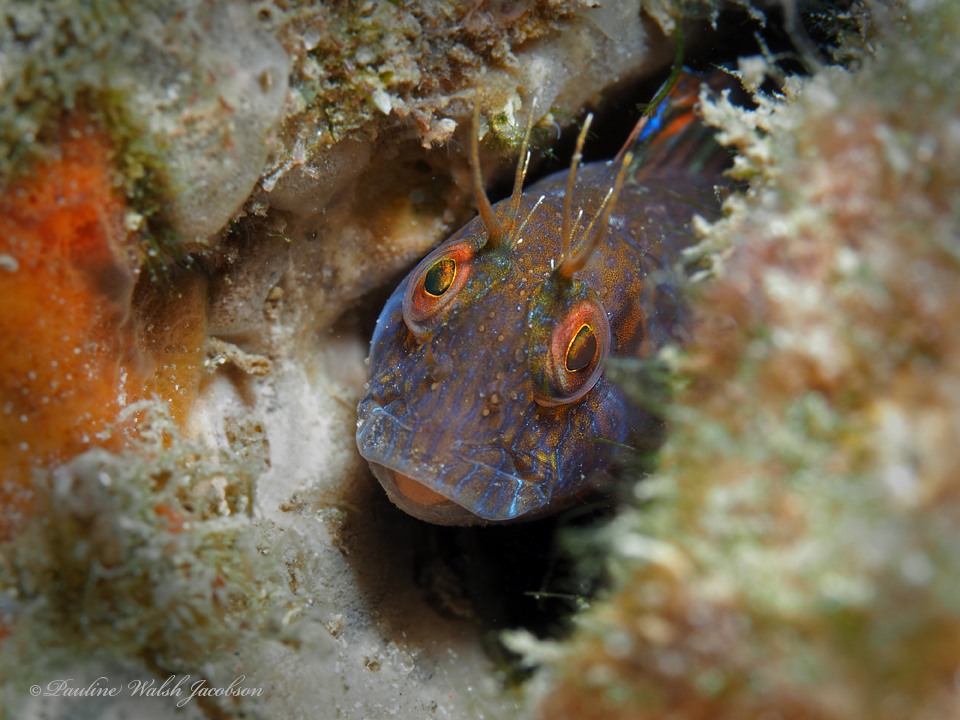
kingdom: Animalia
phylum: Chordata
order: Perciformes
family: Blenniidae
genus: Parablennius
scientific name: Parablennius marmoreus
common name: Seaweed blenny
